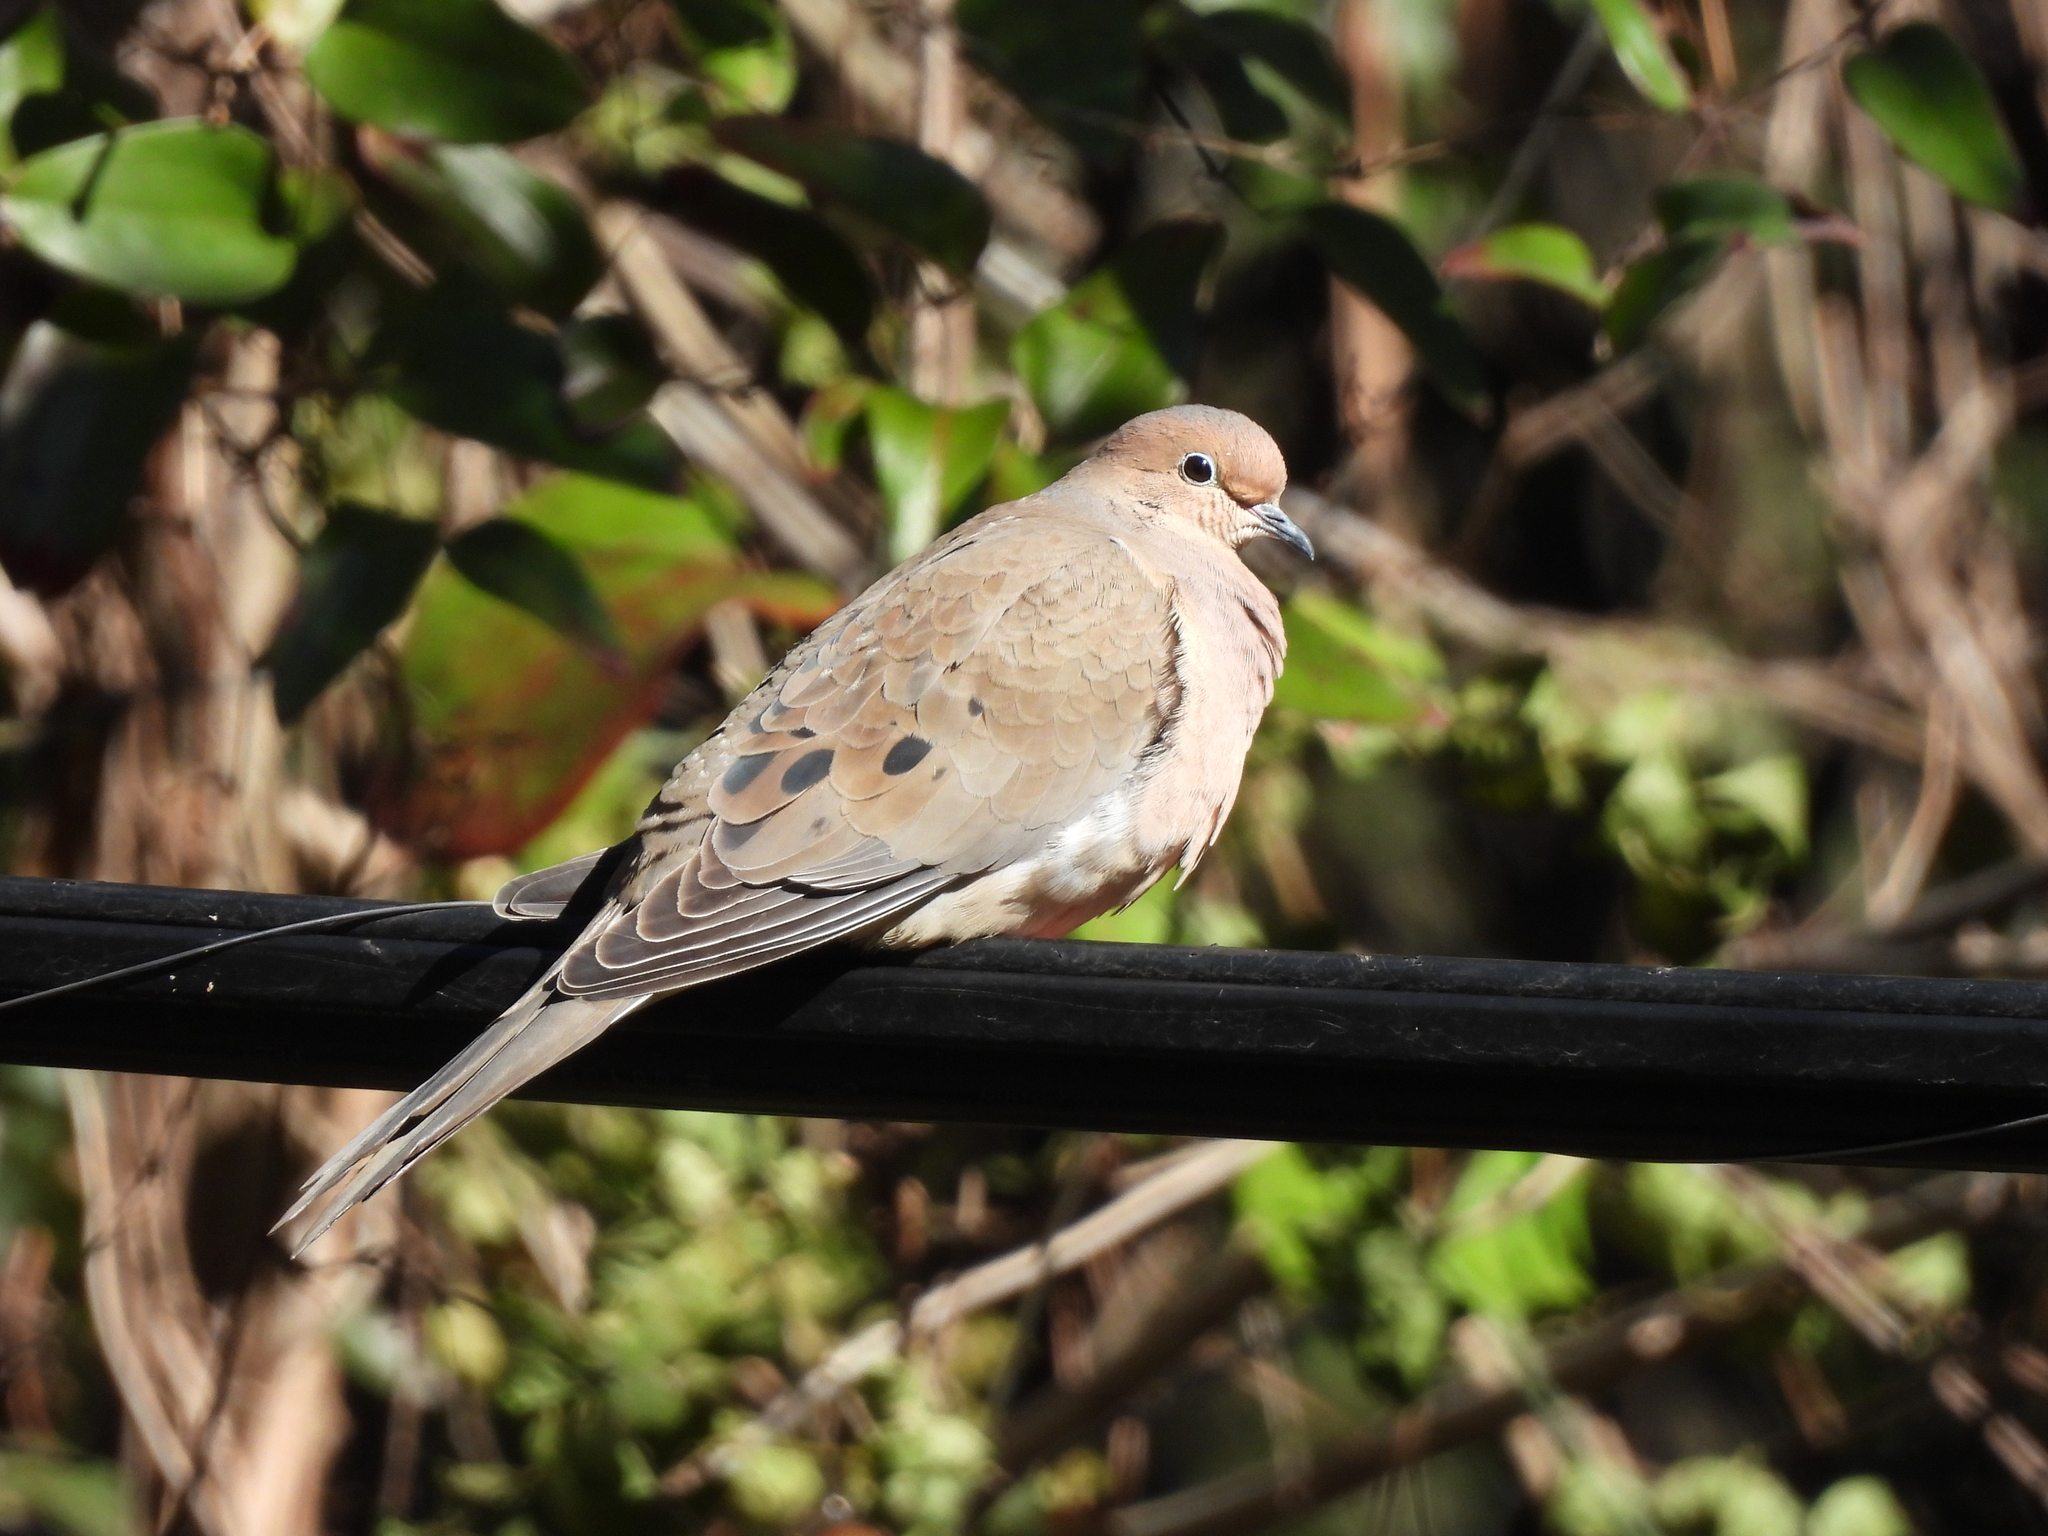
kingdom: Animalia
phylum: Chordata
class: Aves
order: Columbiformes
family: Columbidae
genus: Zenaida
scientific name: Zenaida macroura
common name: Mourning dove
